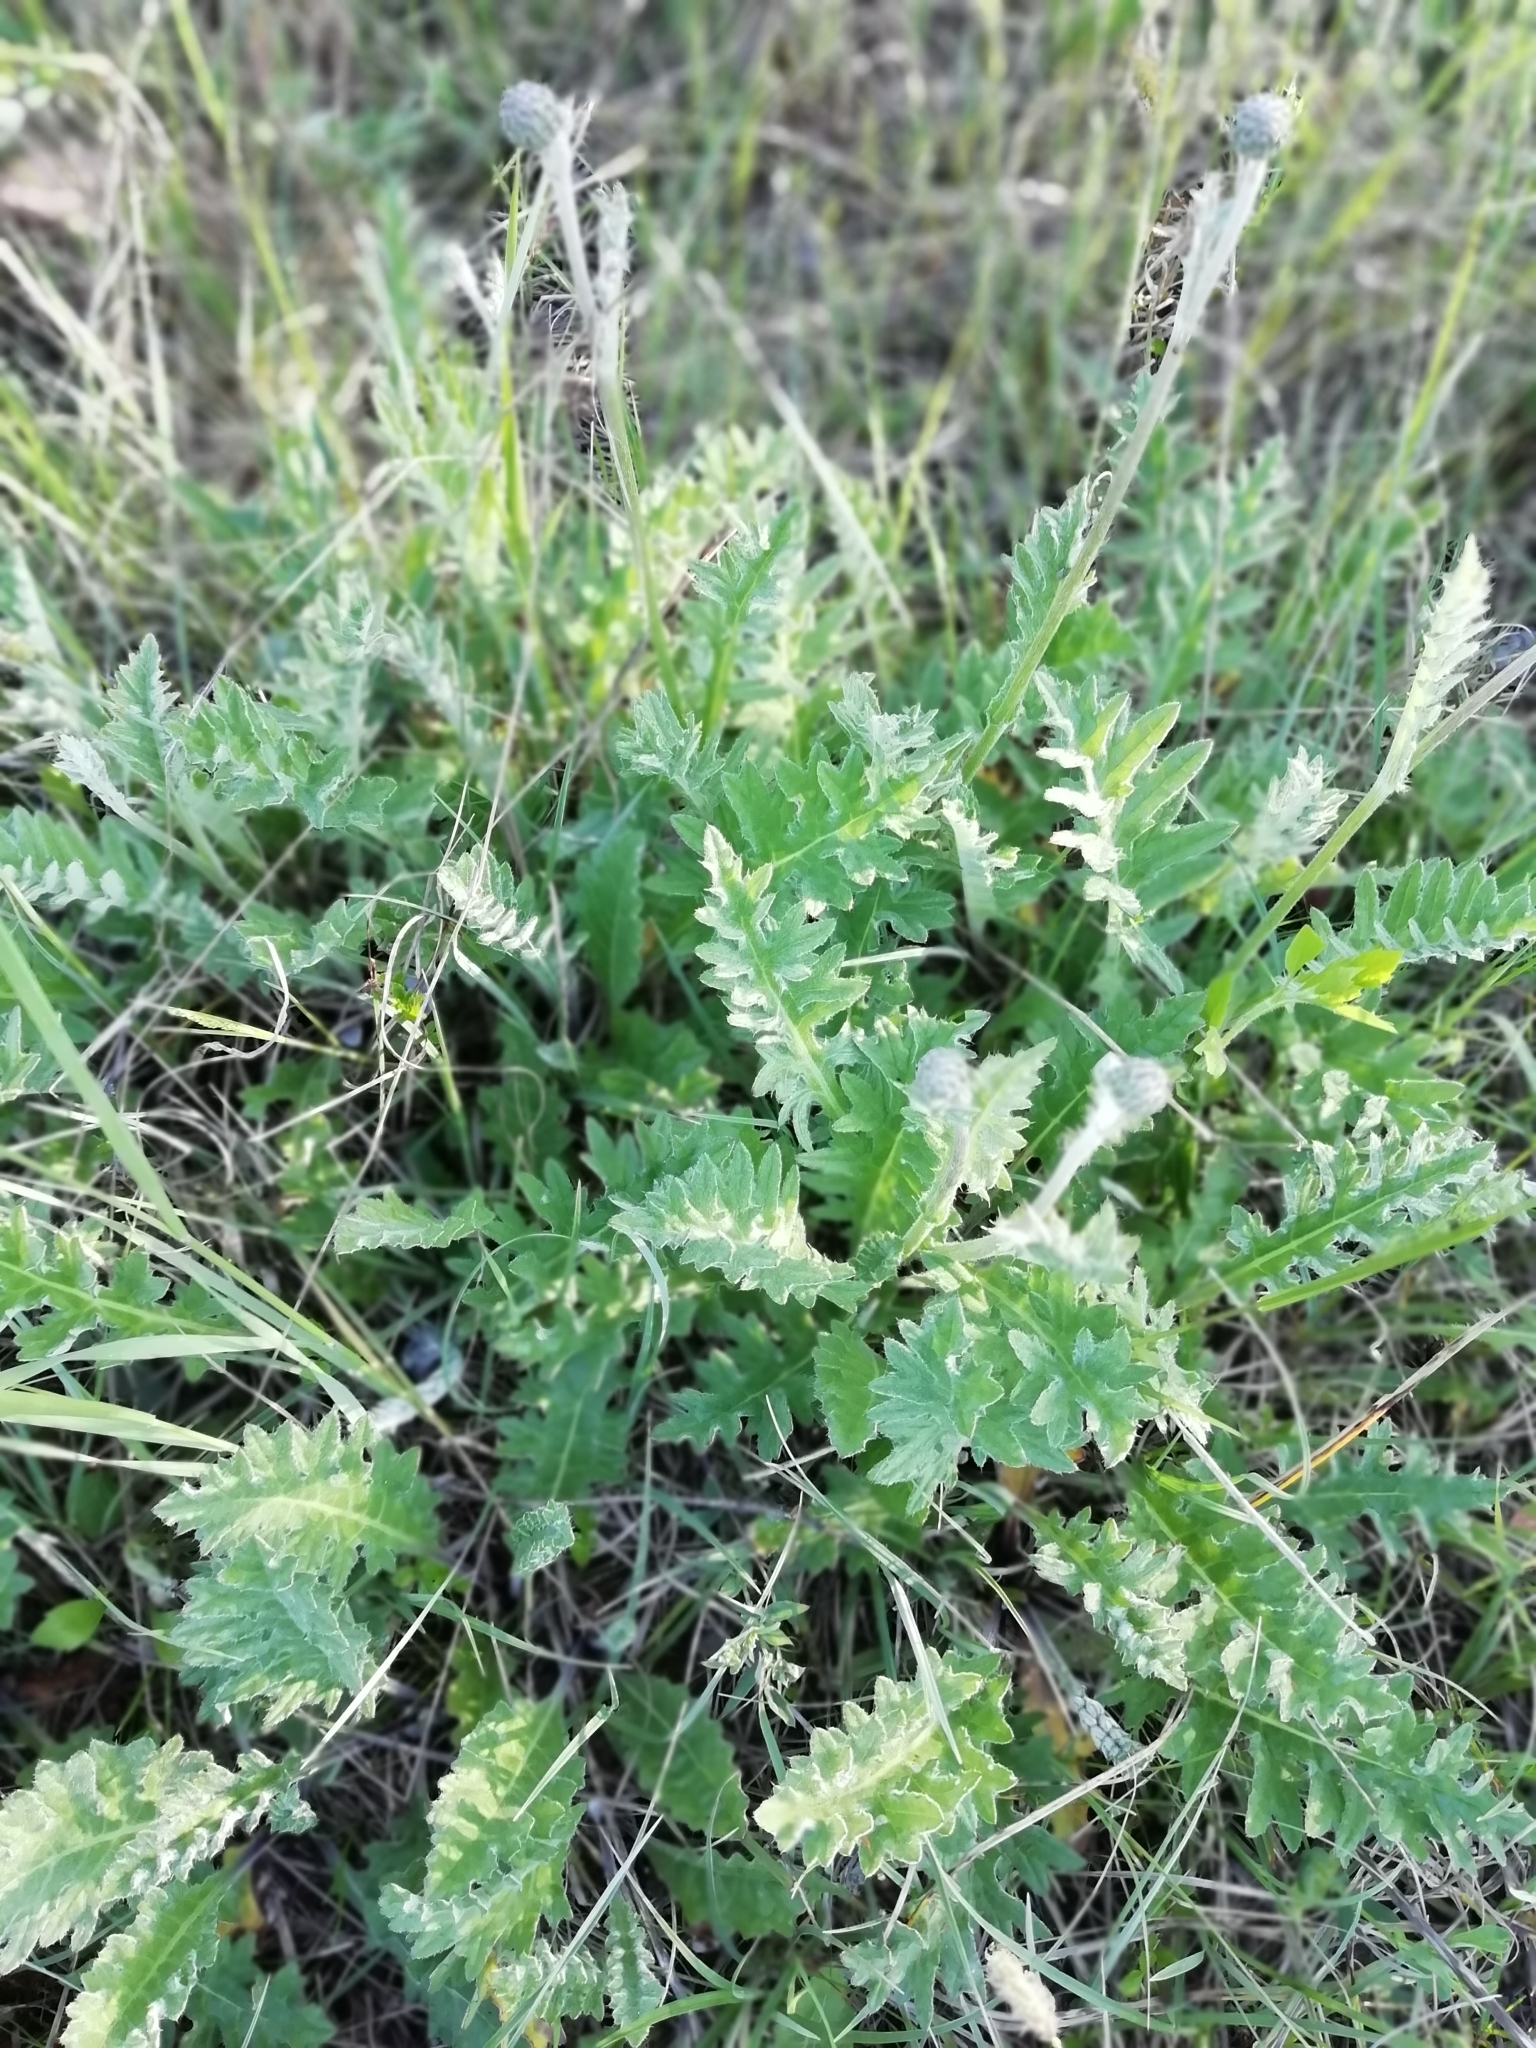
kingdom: Plantae
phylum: Tracheophyta
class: Magnoliopsida
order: Asterales
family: Asteraceae
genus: Cirsium
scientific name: Cirsium tuberosum
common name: Tuberous thistle
